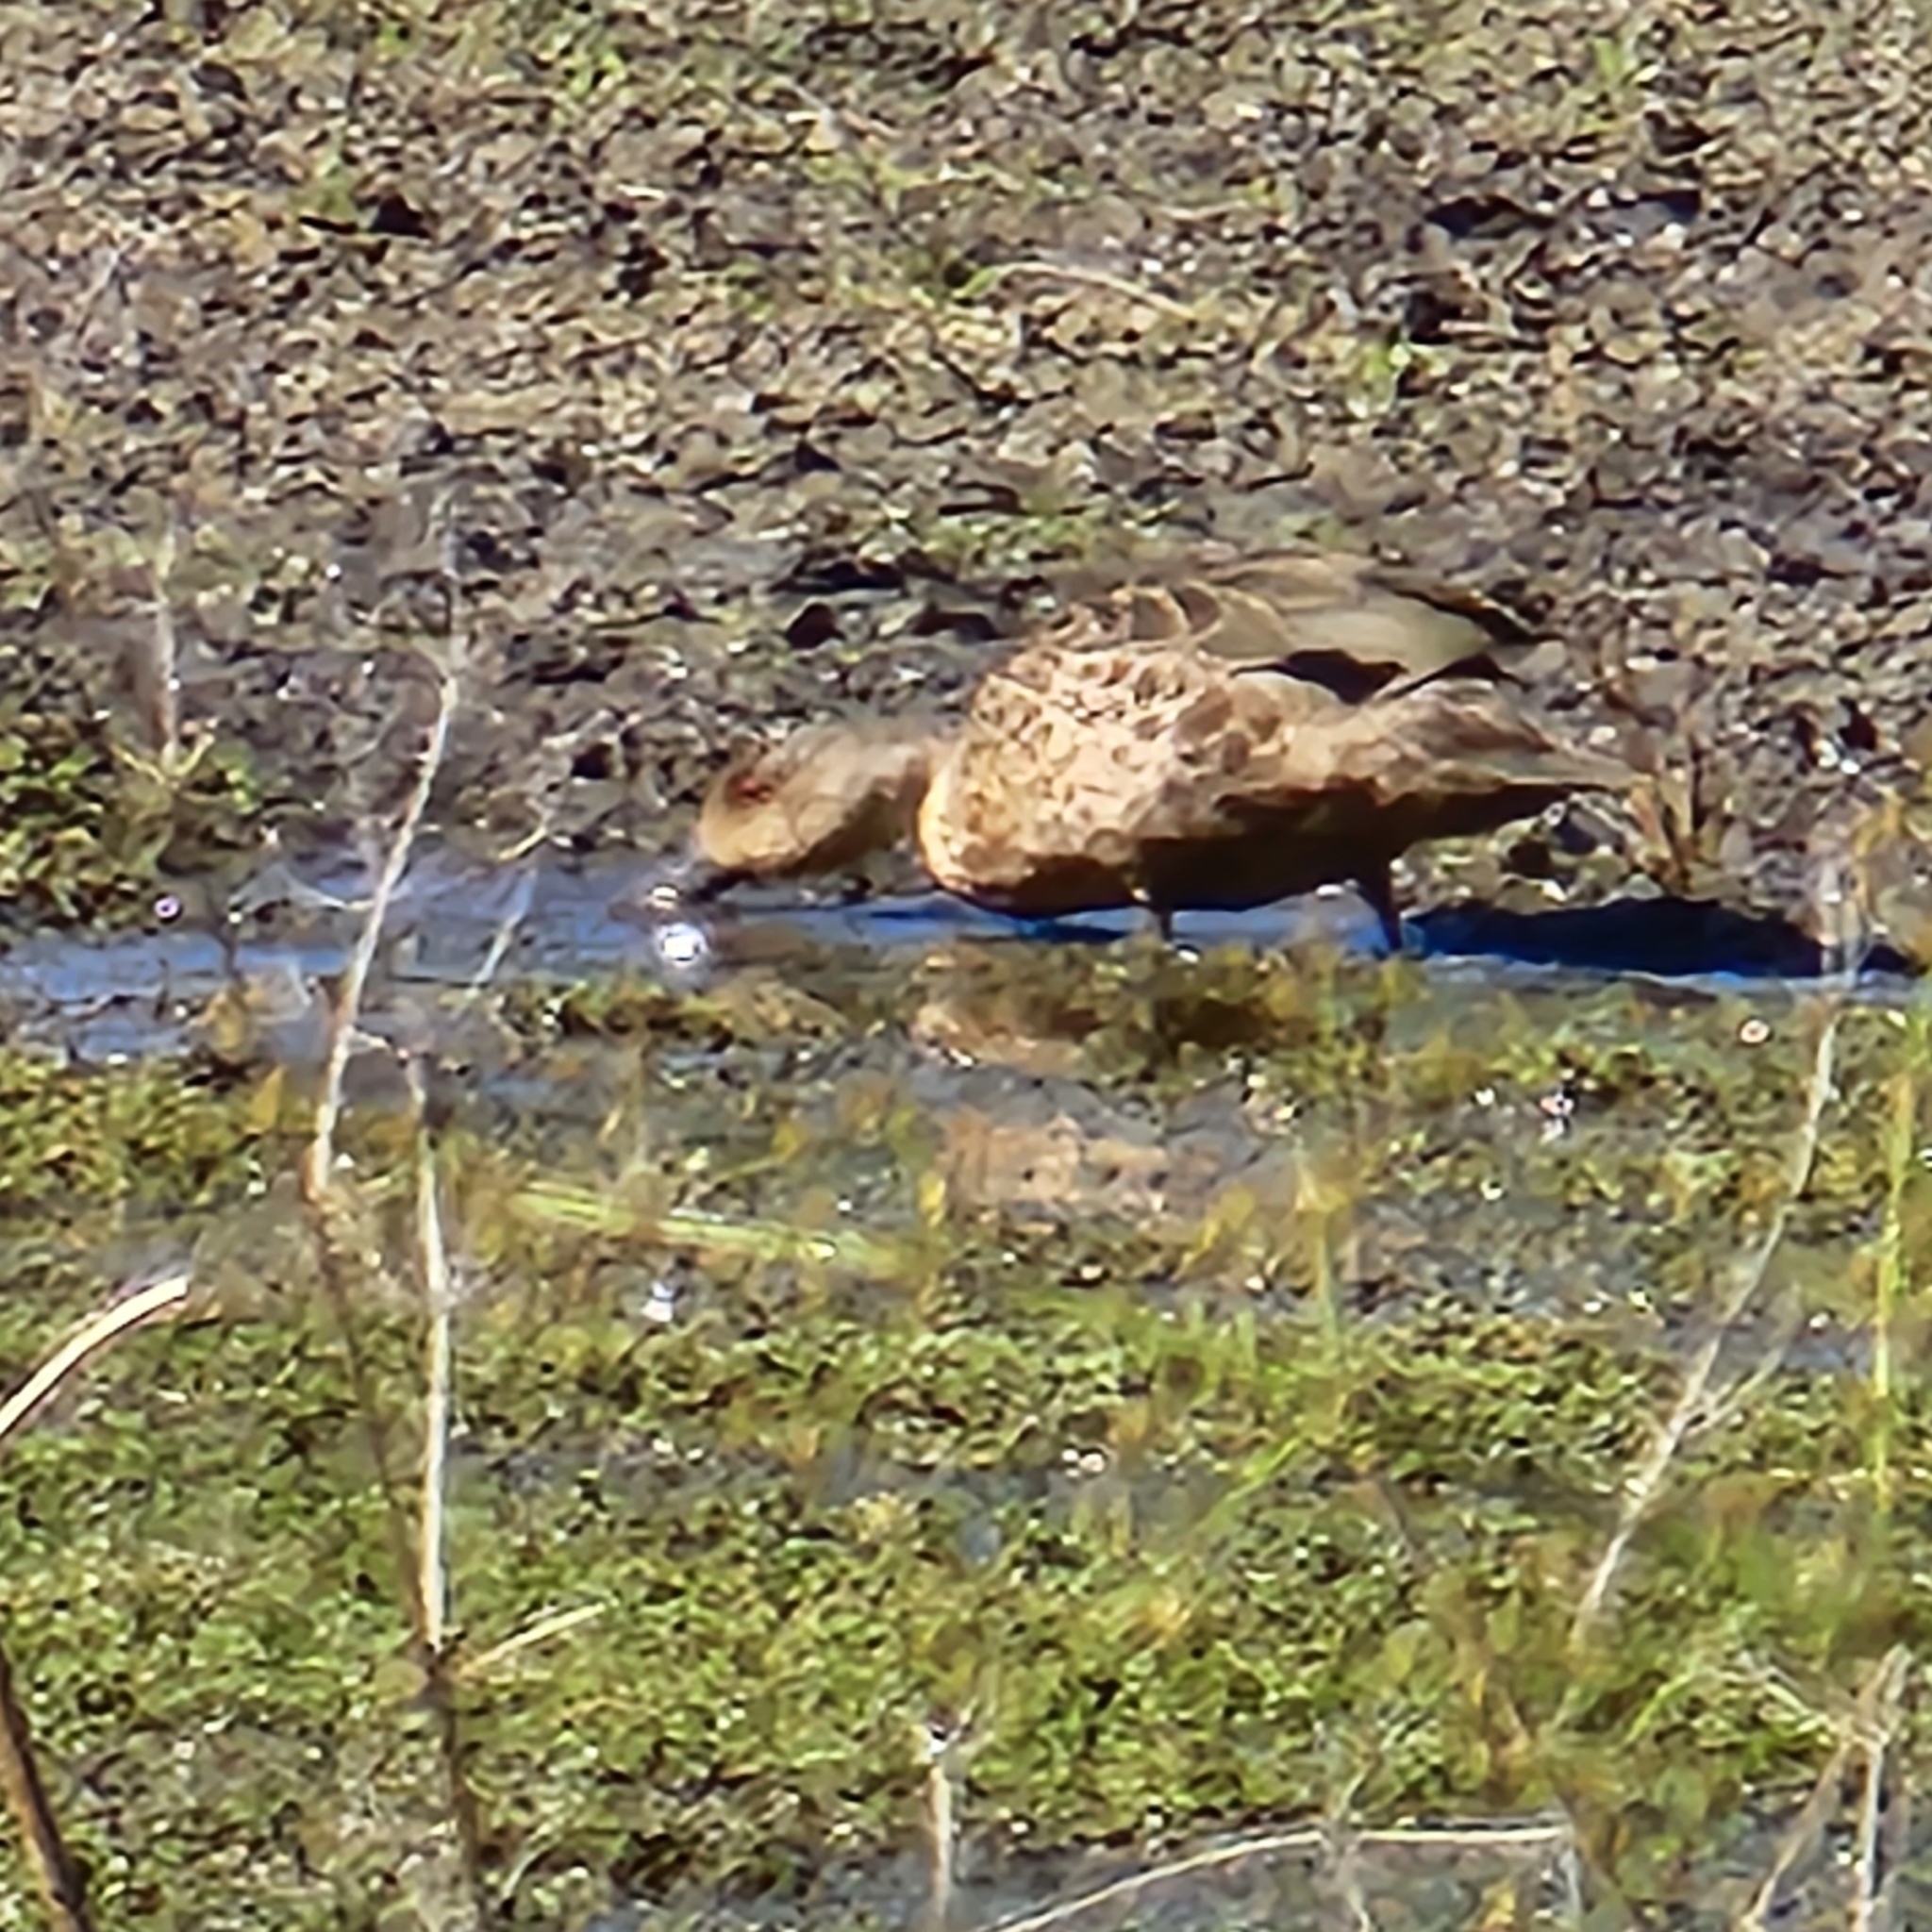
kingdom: Animalia
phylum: Chordata
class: Aves
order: Anseriformes
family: Anatidae
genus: Anas
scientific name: Anas gracilis
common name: Grey teal
